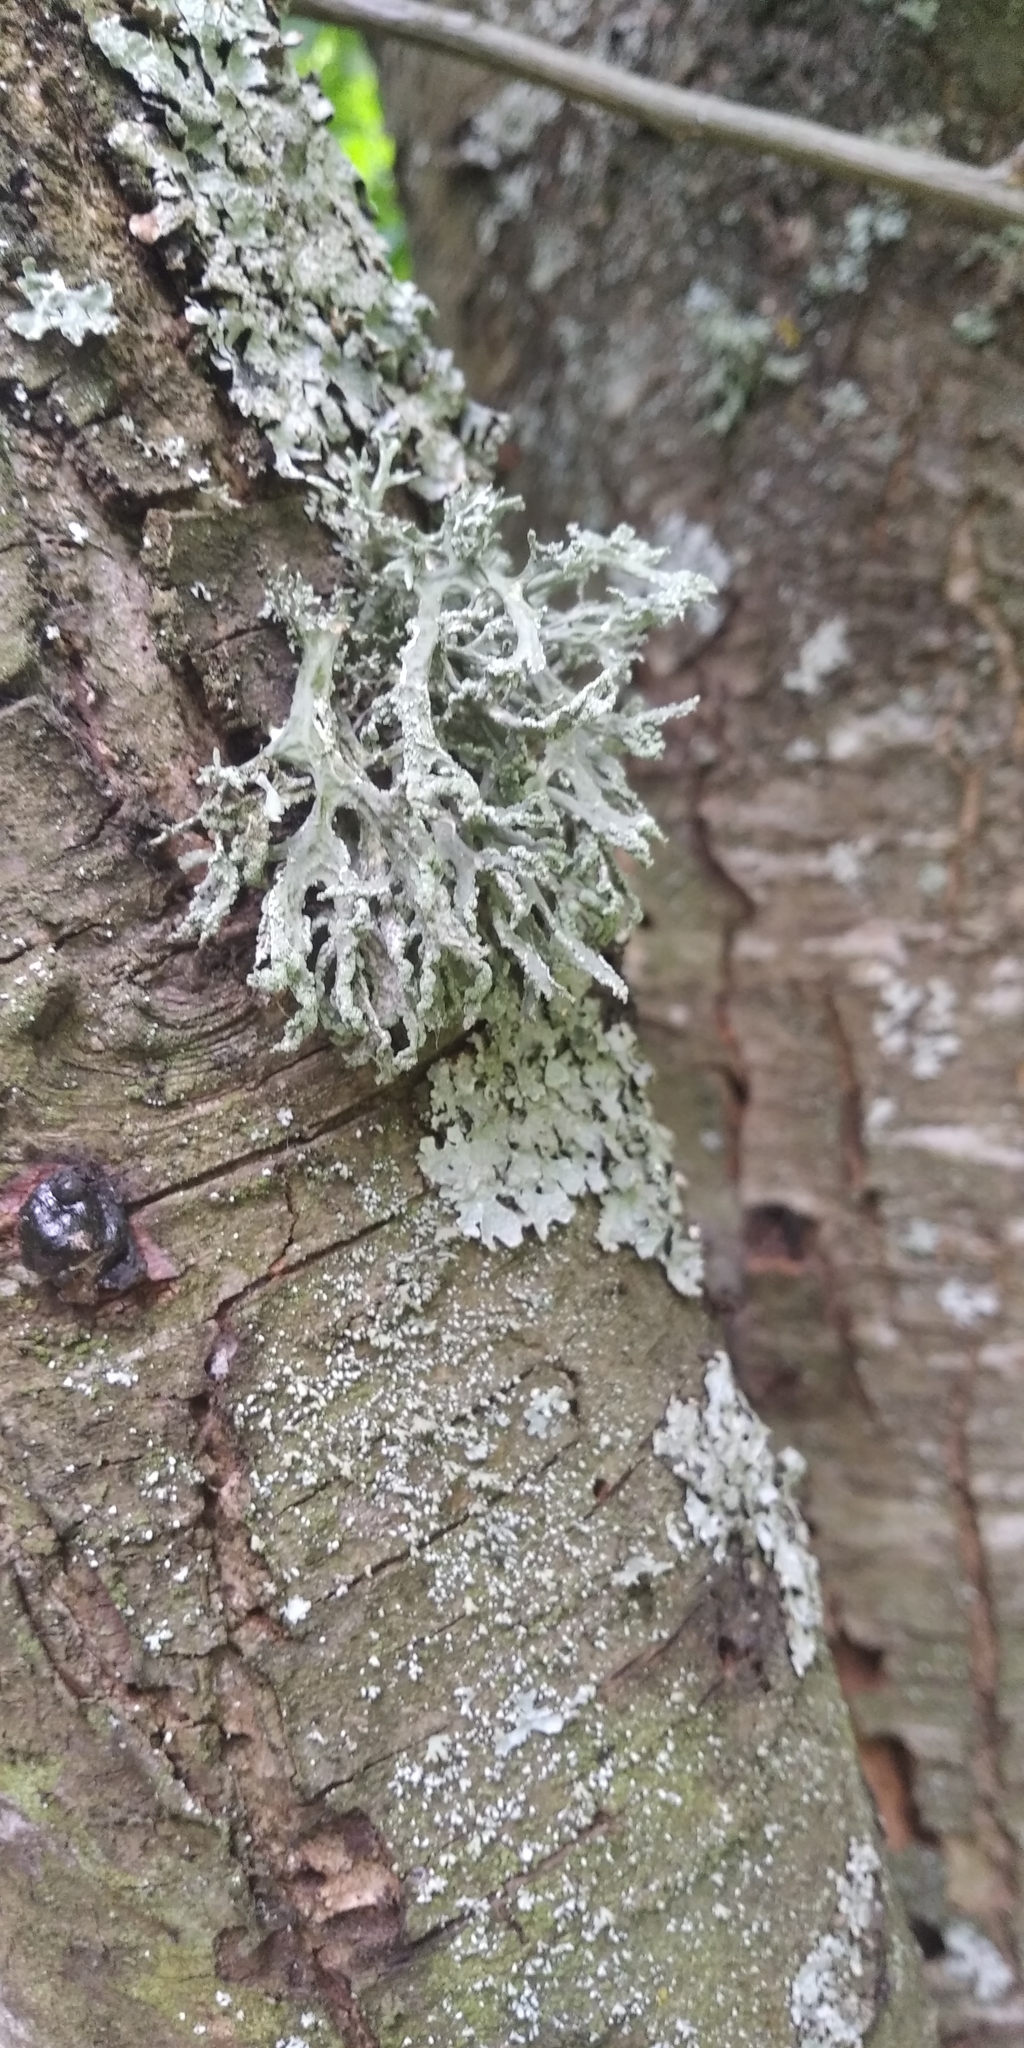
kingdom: Fungi
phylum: Ascomycota
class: Lecanoromycetes
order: Lecanorales
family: Parmeliaceae
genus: Evernia
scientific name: Evernia prunastri
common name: Oak moss
